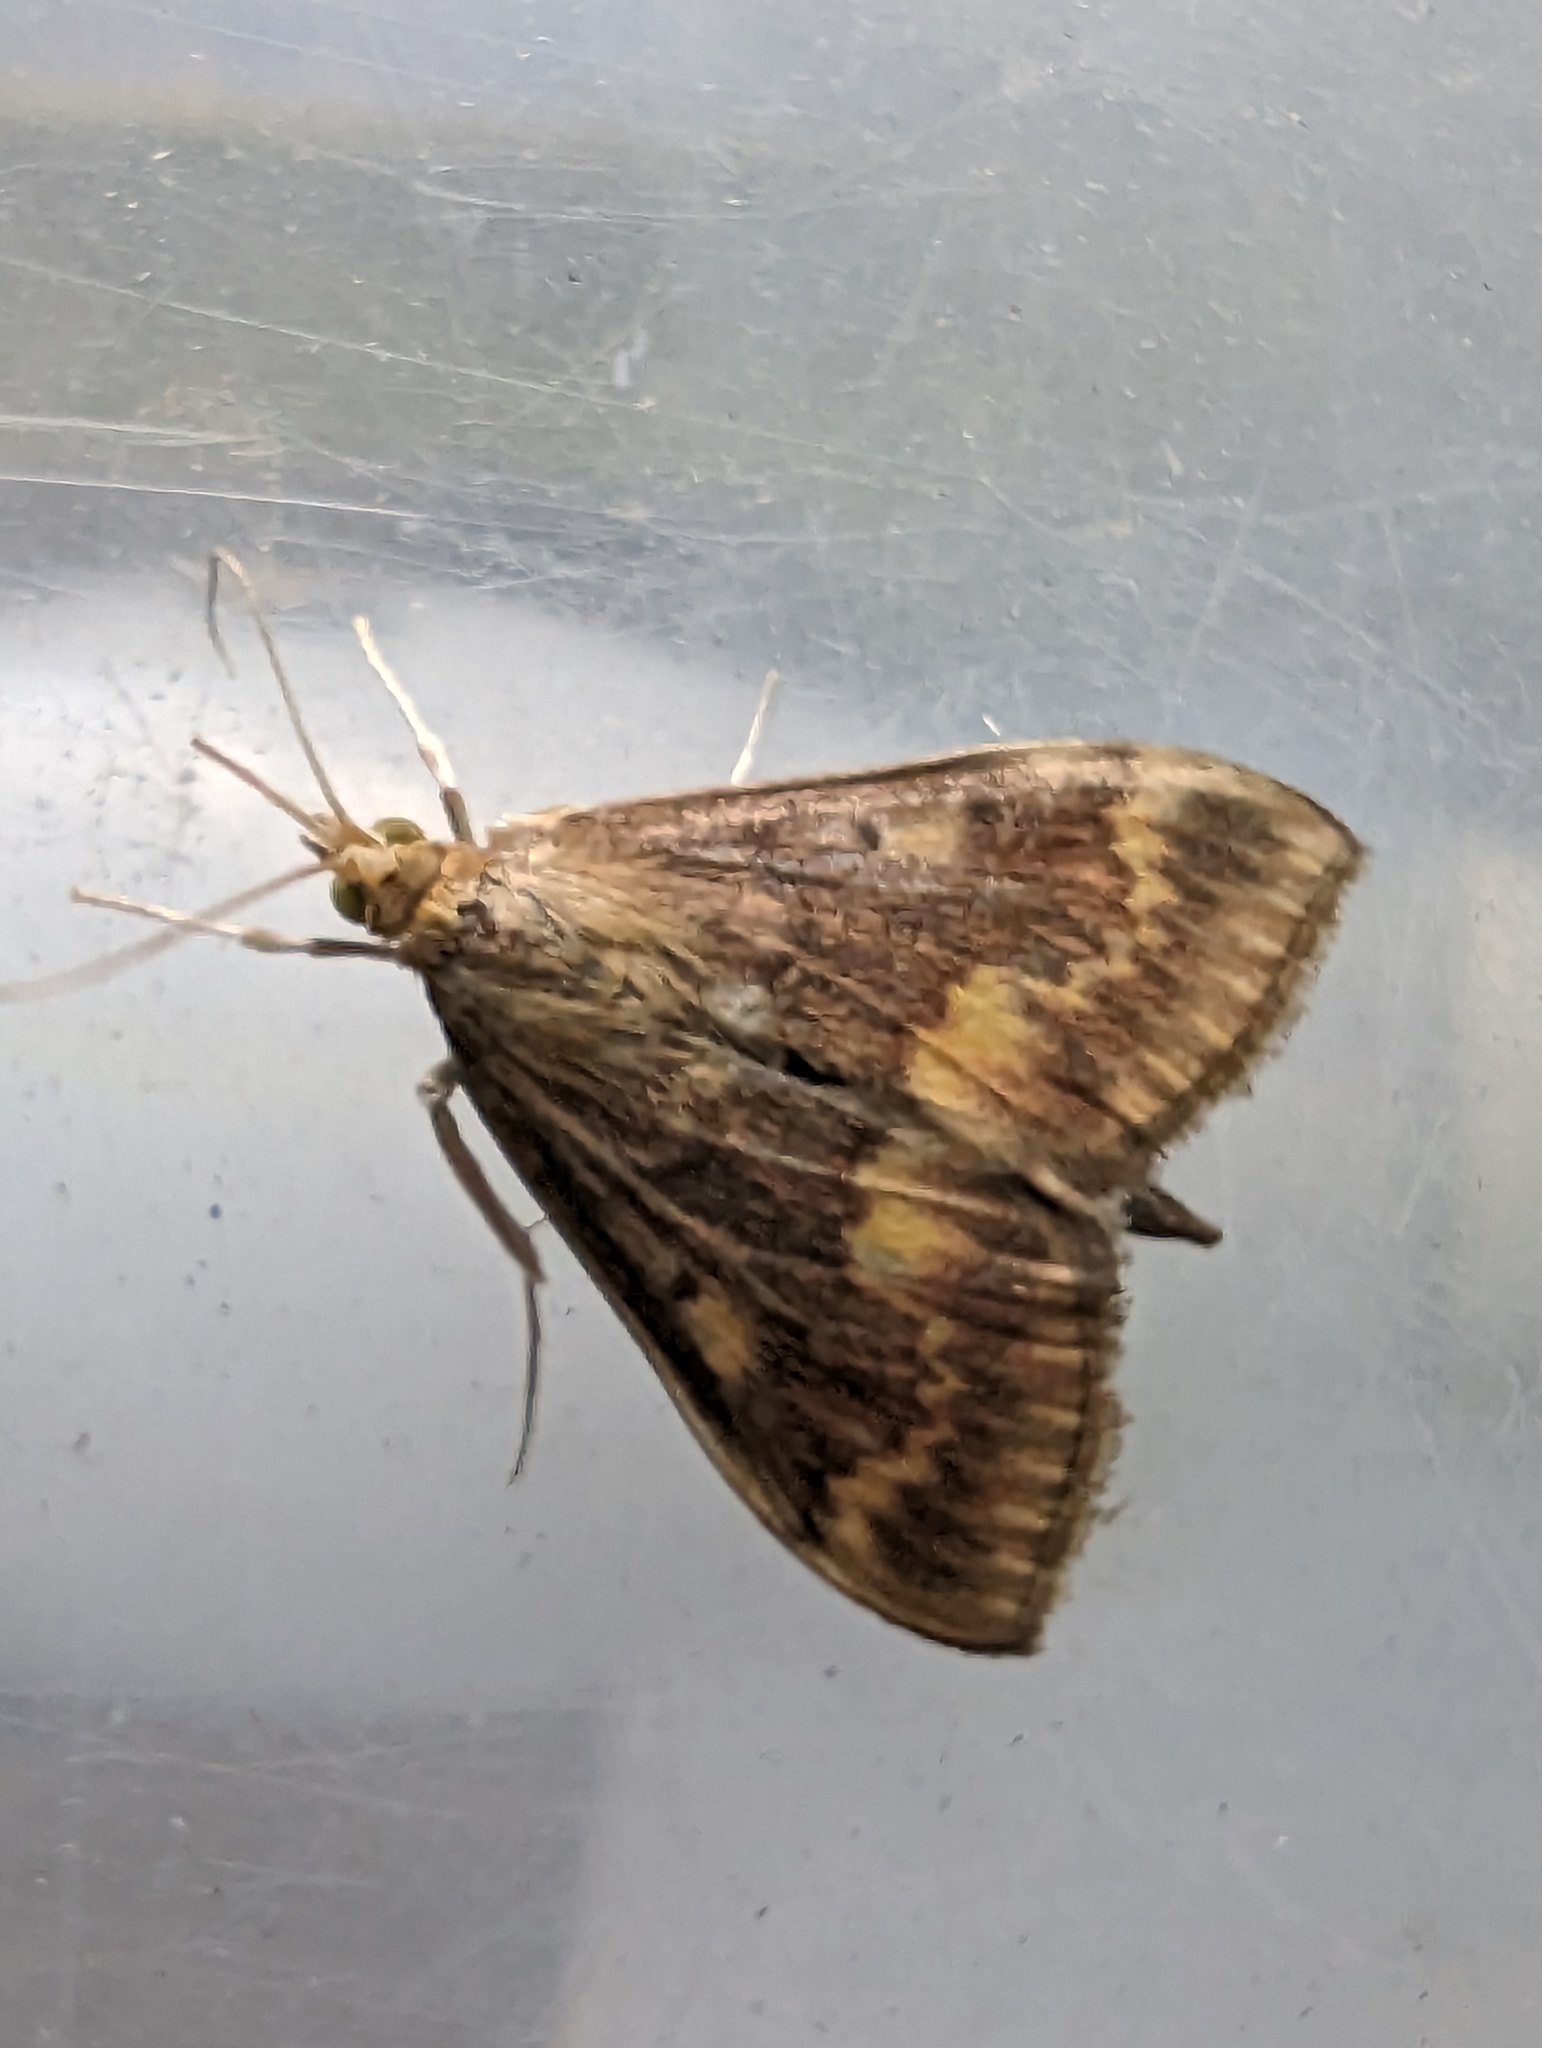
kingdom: Animalia
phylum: Arthropoda
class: Insecta
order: Lepidoptera
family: Crambidae
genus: Ostrinia
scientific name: Ostrinia nubilalis
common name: European corn borer
